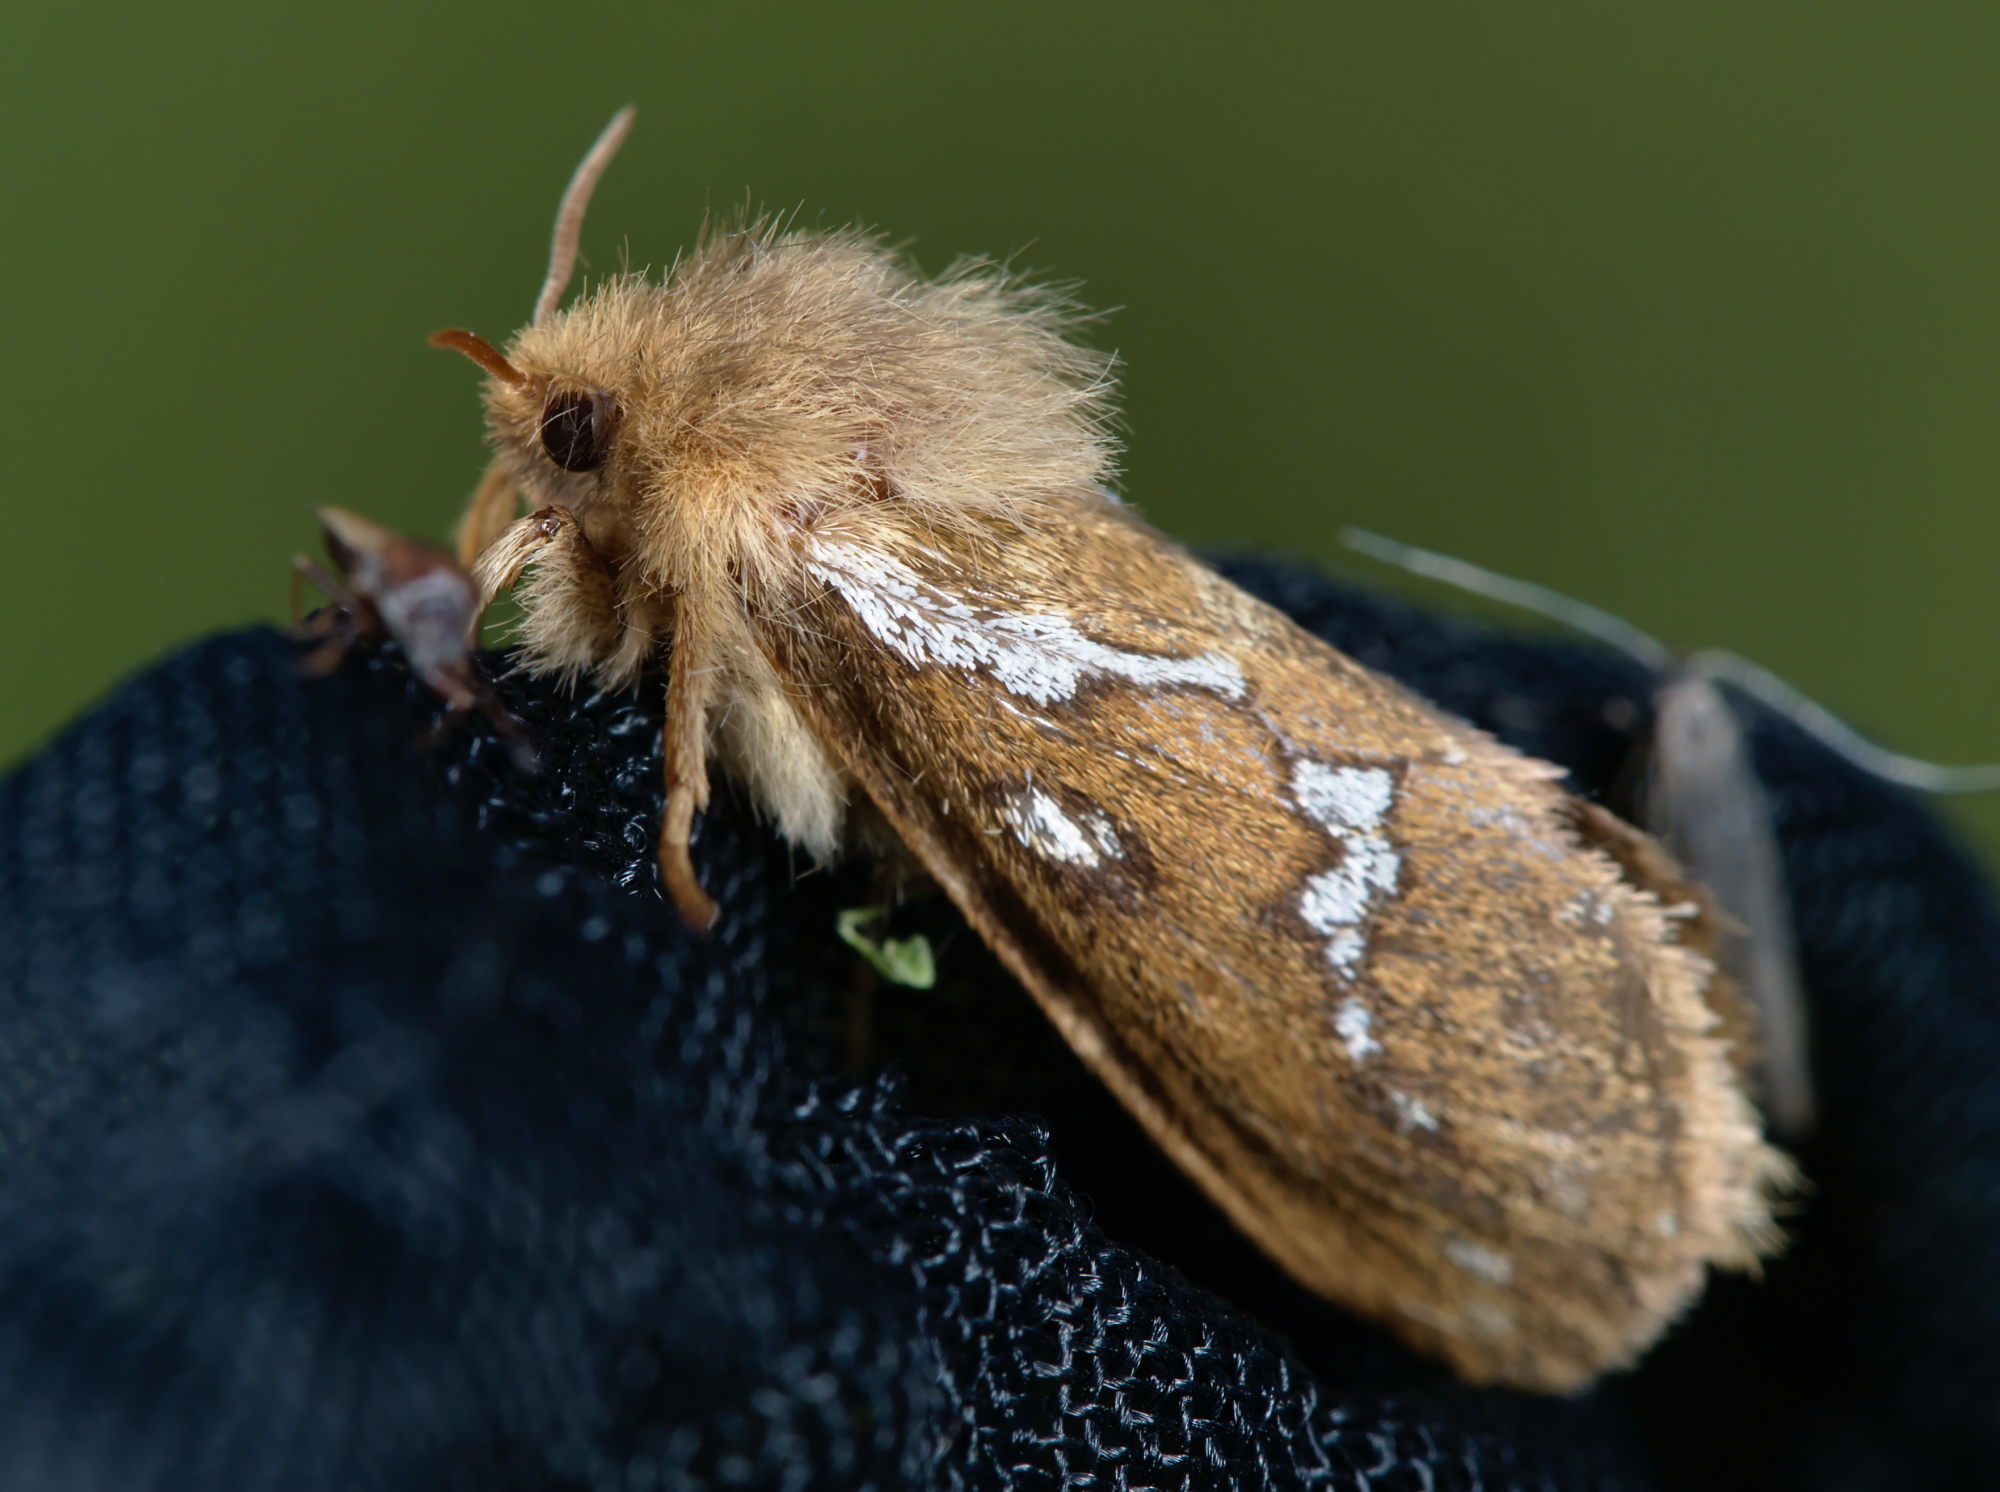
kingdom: Animalia
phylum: Arthropoda
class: Insecta
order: Lepidoptera
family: Hepialidae
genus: Korscheltellus
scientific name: Korscheltellus lupulina
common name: Common swift
